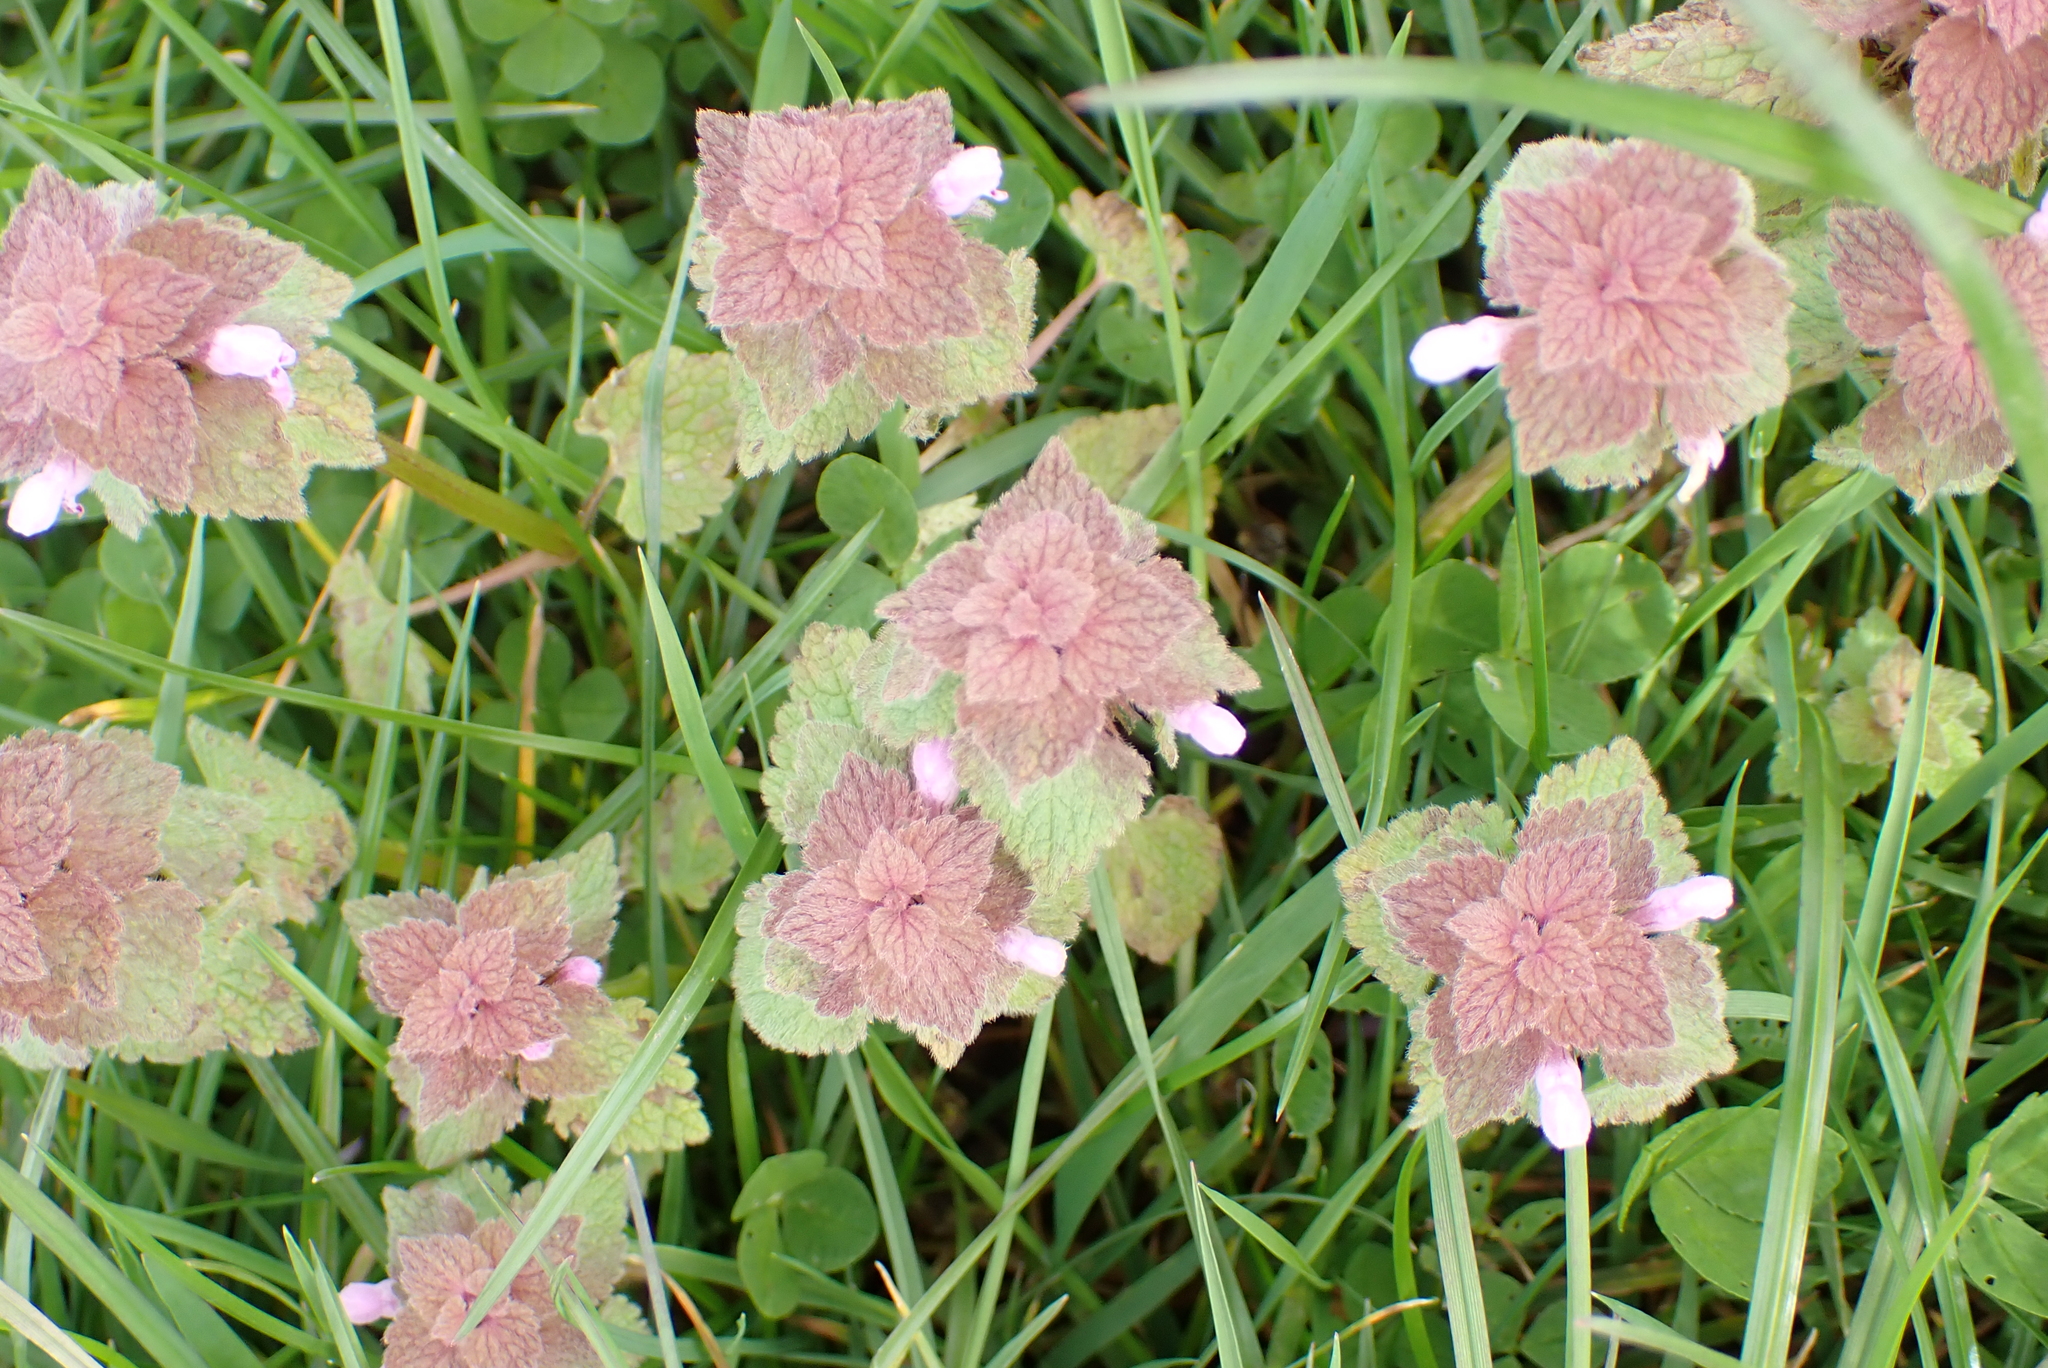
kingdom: Plantae
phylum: Tracheophyta
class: Magnoliopsida
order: Lamiales
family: Lamiaceae
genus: Lamium
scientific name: Lamium purpureum
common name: Red dead-nettle
